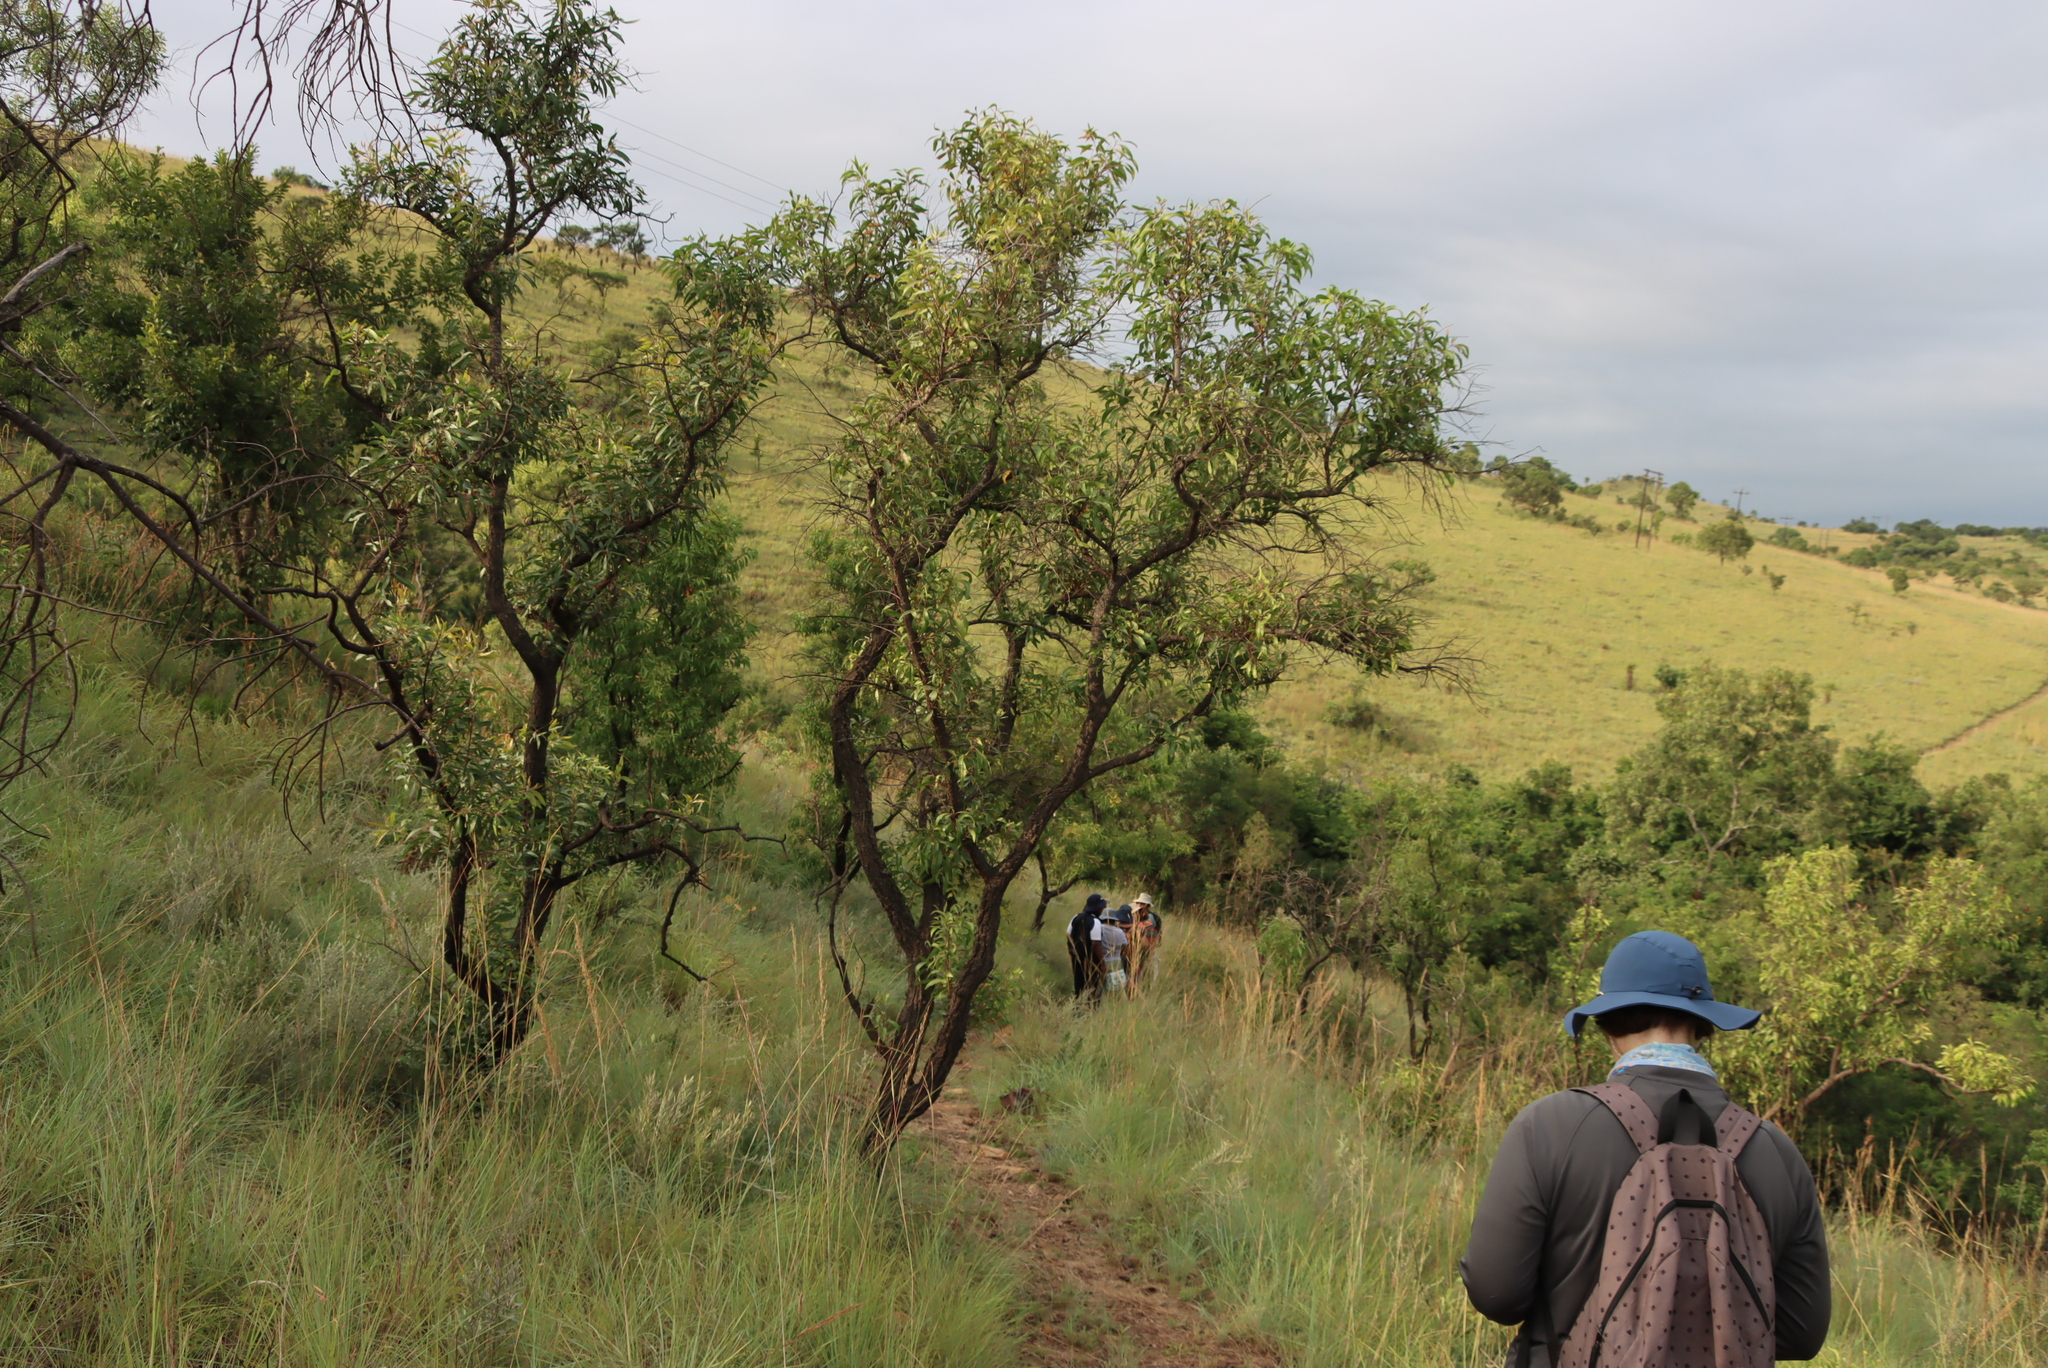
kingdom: Plantae
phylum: Tracheophyta
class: Magnoliopsida
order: Proteales
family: Proteaceae
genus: Faurea
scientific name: Faurea saligna
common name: African bean
